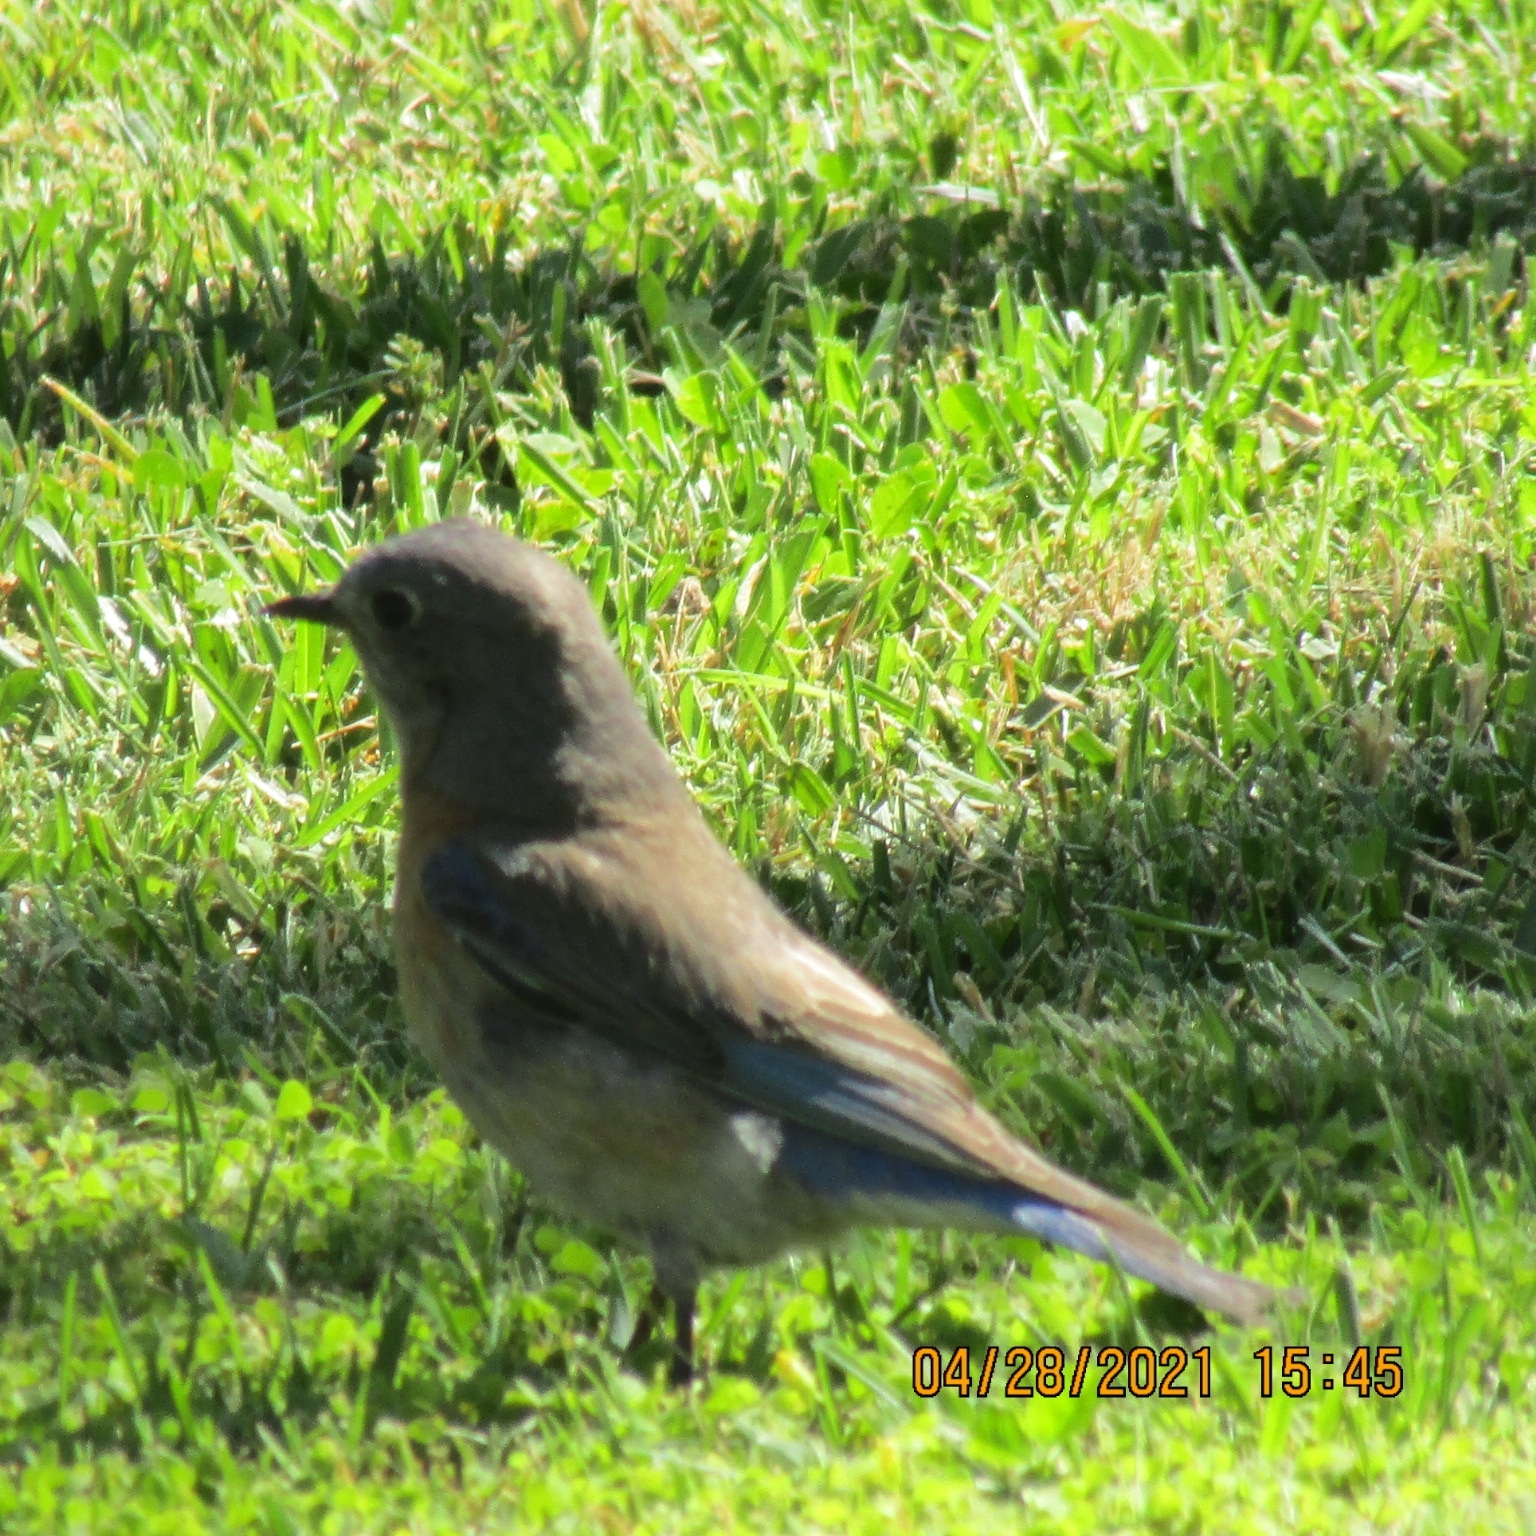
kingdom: Animalia
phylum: Chordata
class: Aves
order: Passeriformes
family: Turdidae
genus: Sialia
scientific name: Sialia mexicana
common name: Western bluebird
